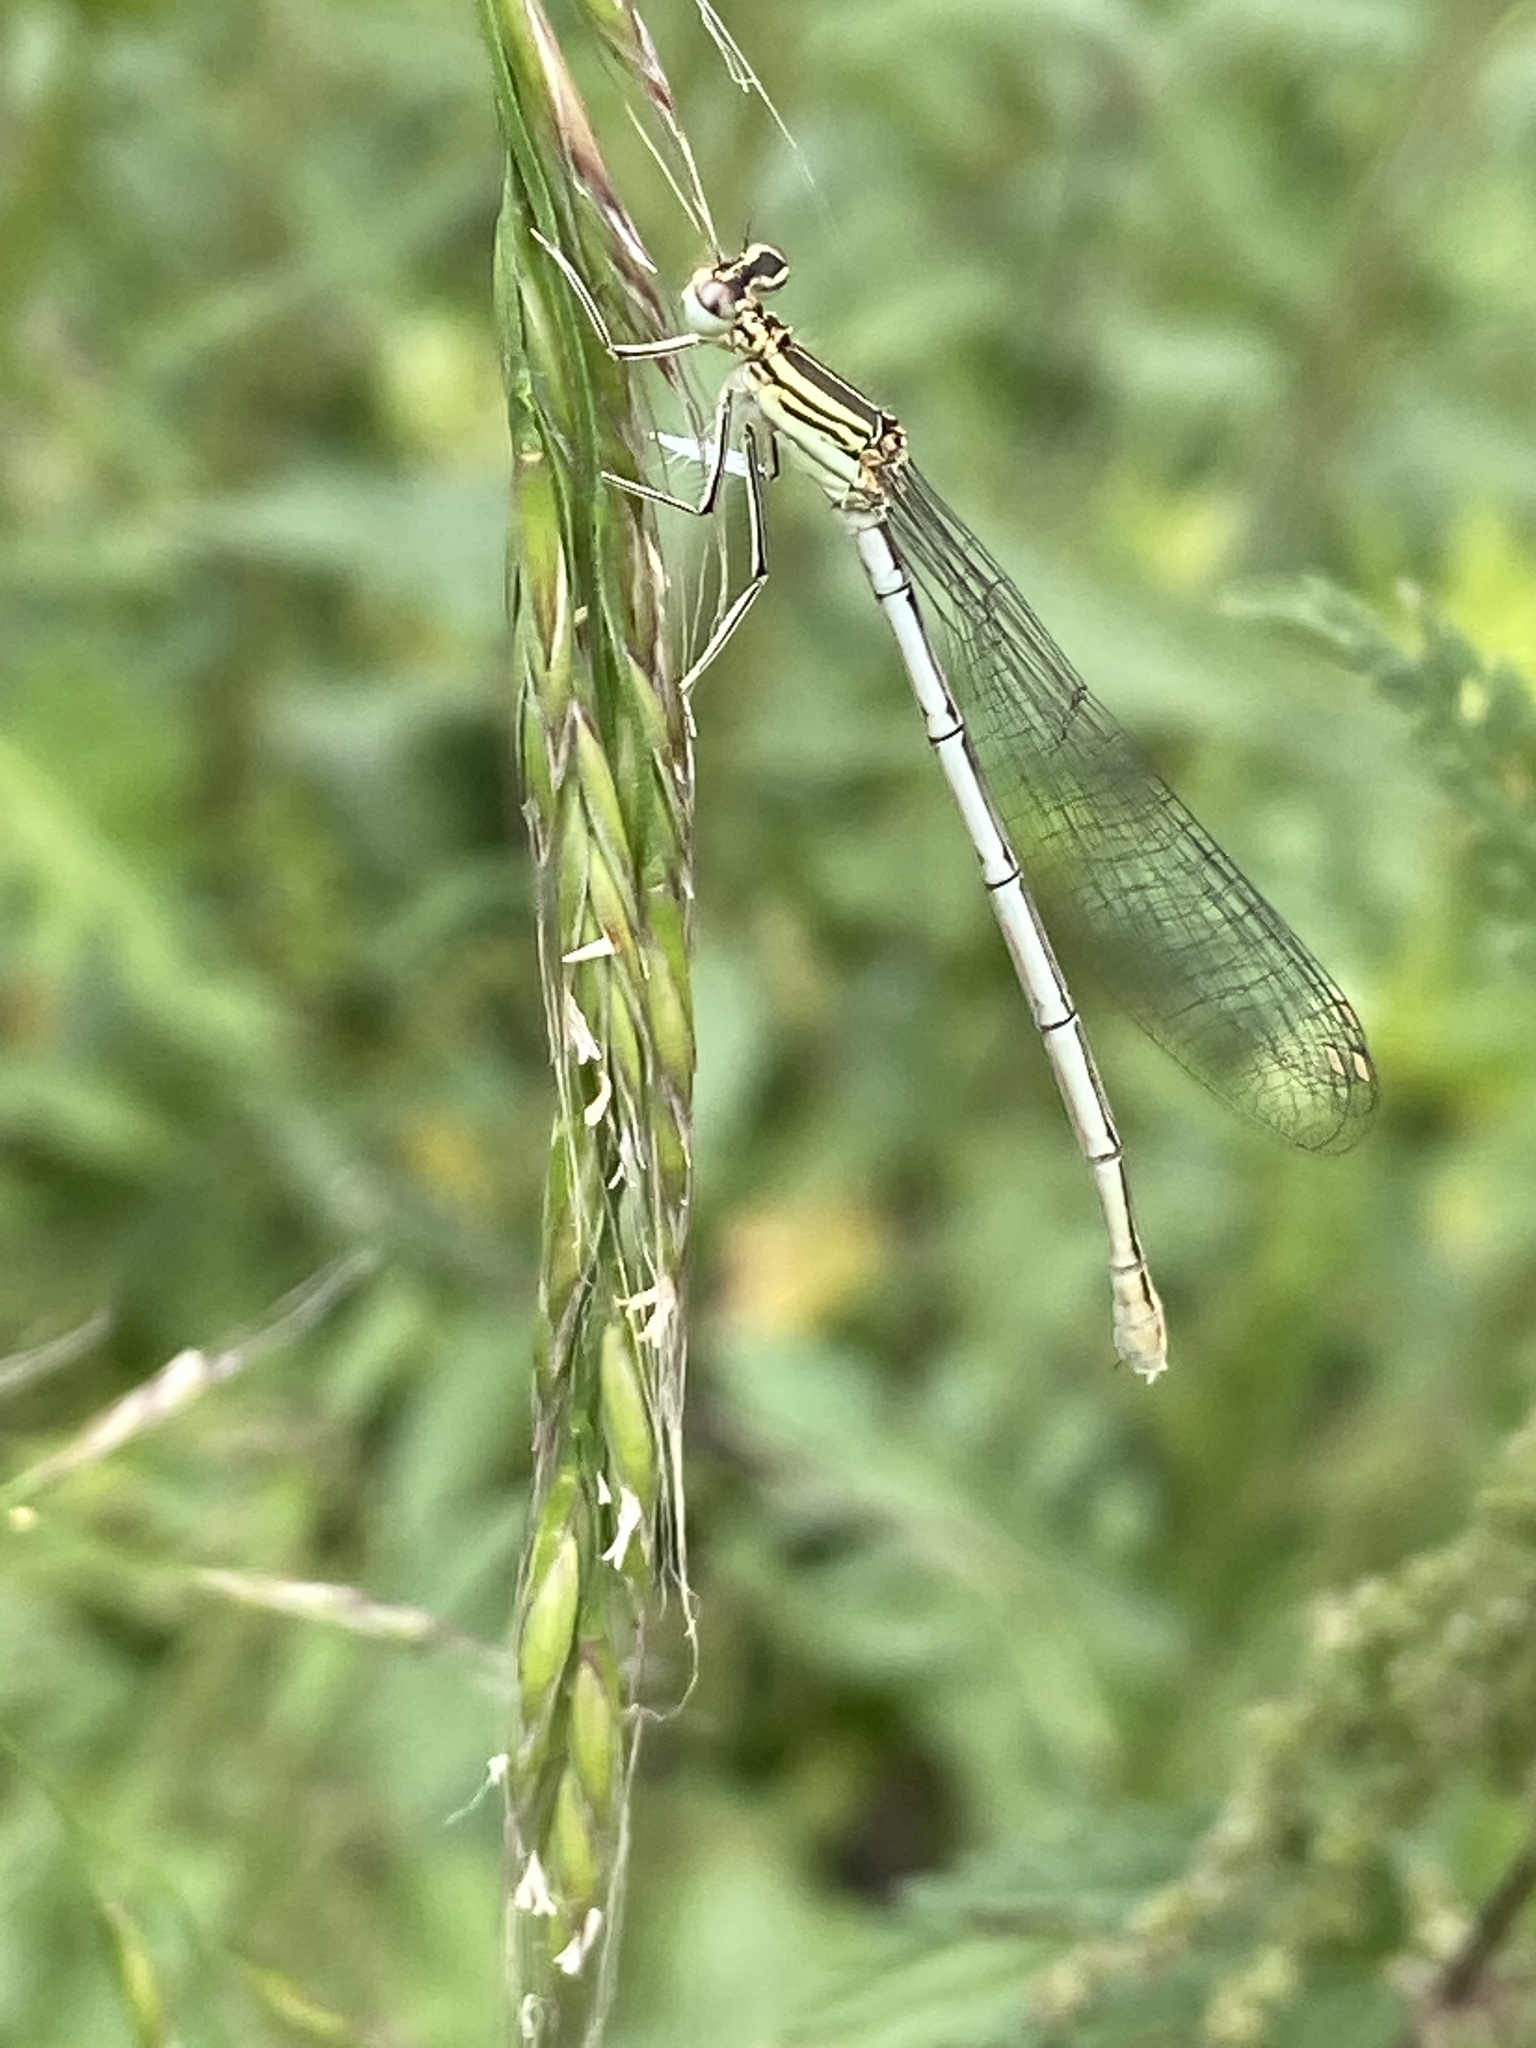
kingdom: Animalia
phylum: Arthropoda
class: Insecta
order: Odonata
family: Platycnemididae
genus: Platycnemis
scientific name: Platycnemis pennipes
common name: White-legged damselfly
